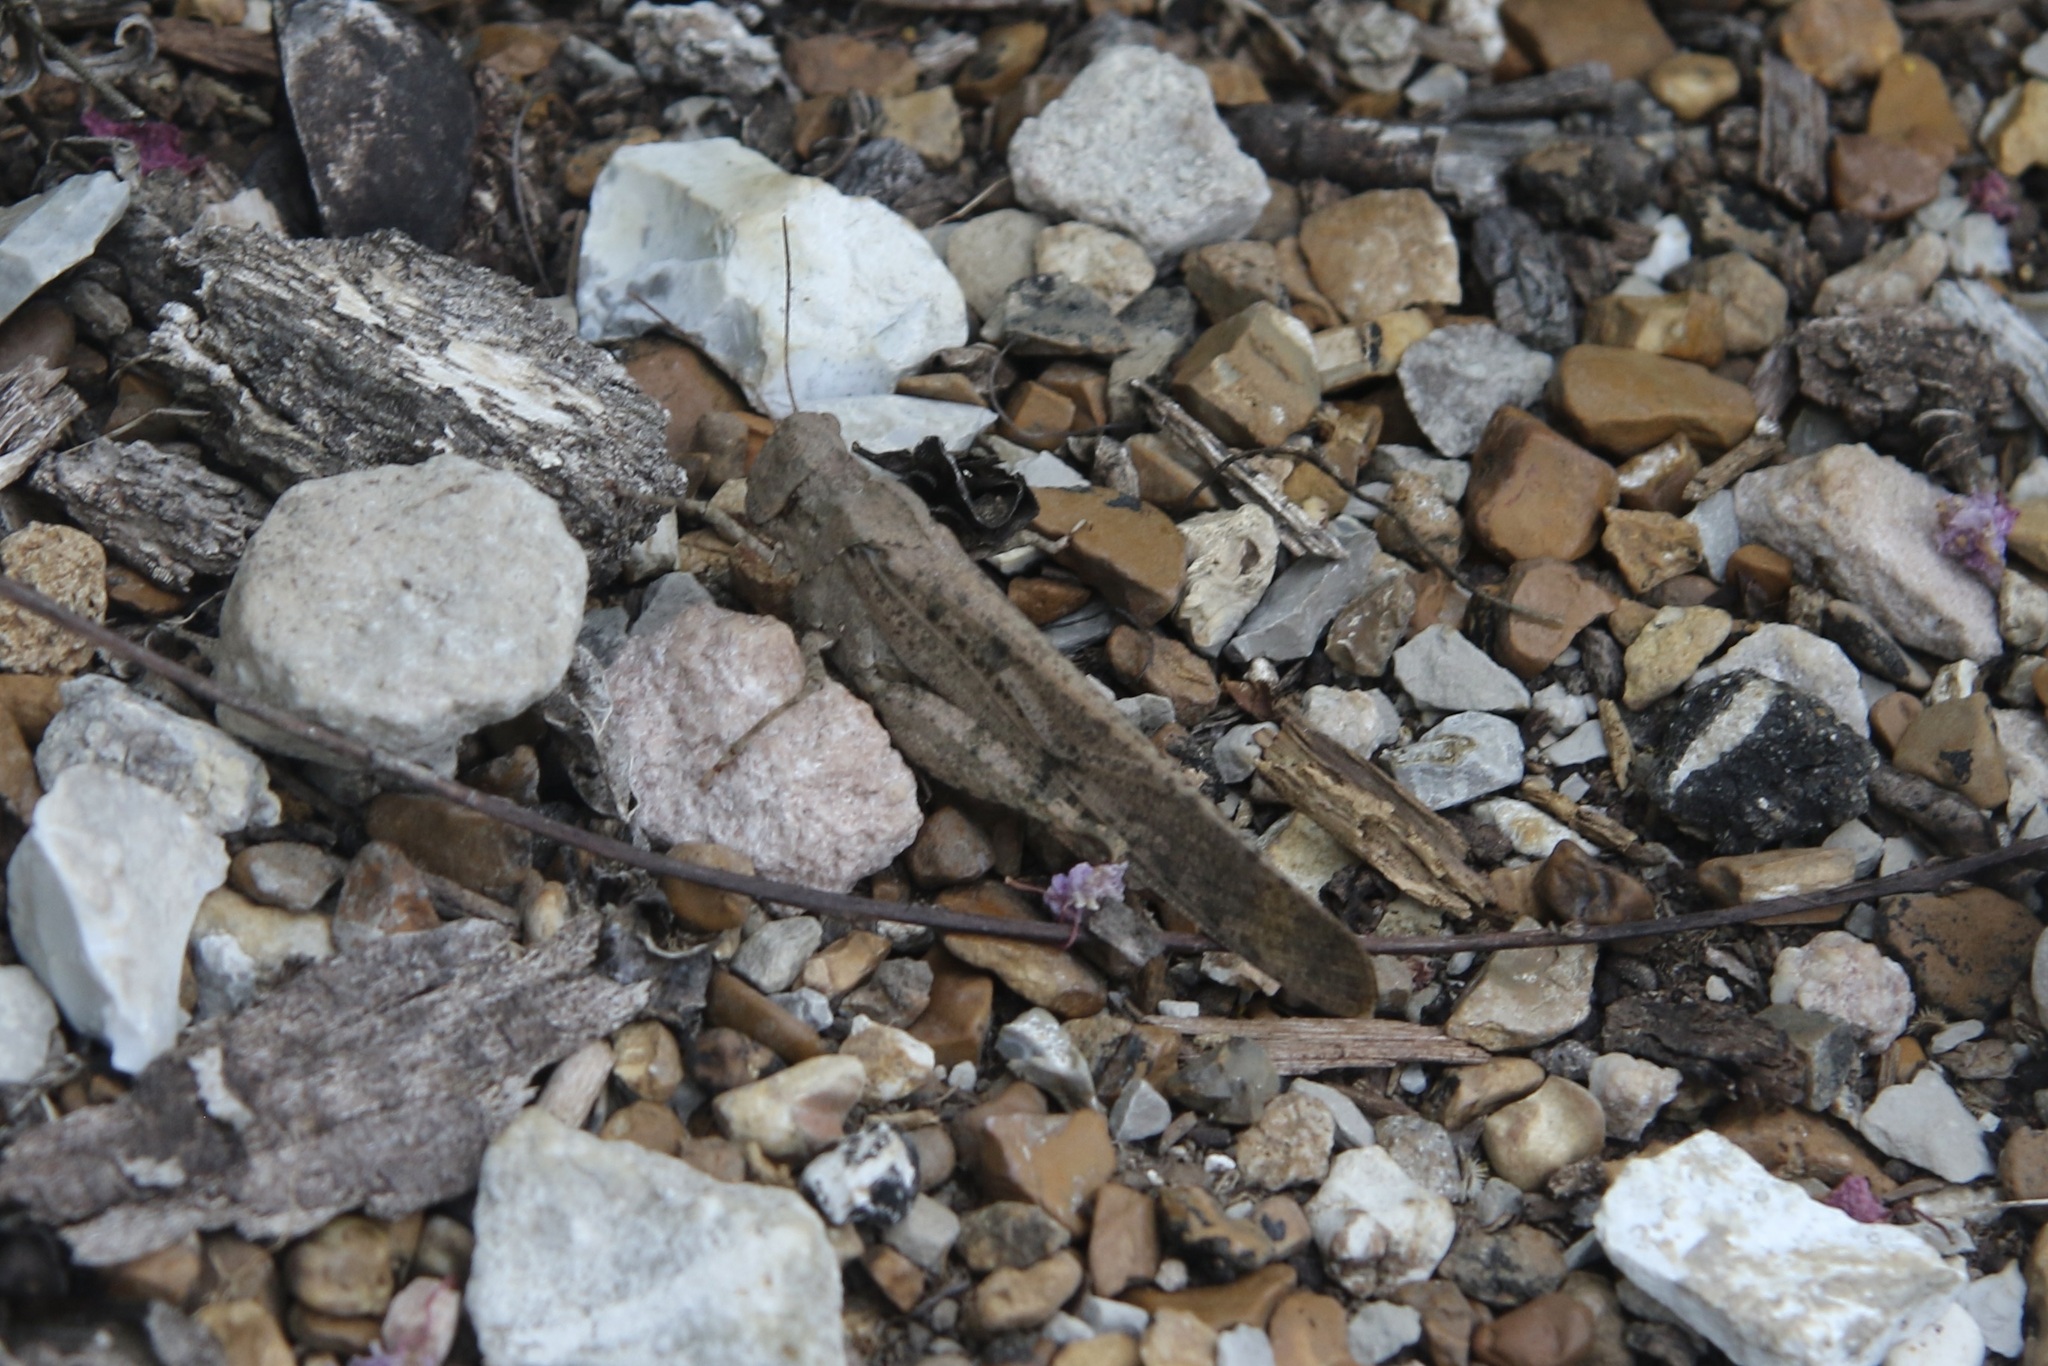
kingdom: Animalia
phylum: Arthropoda
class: Insecta
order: Orthoptera
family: Acrididae
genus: Dissosteira
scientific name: Dissosteira carolina
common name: Carolina grasshopper
